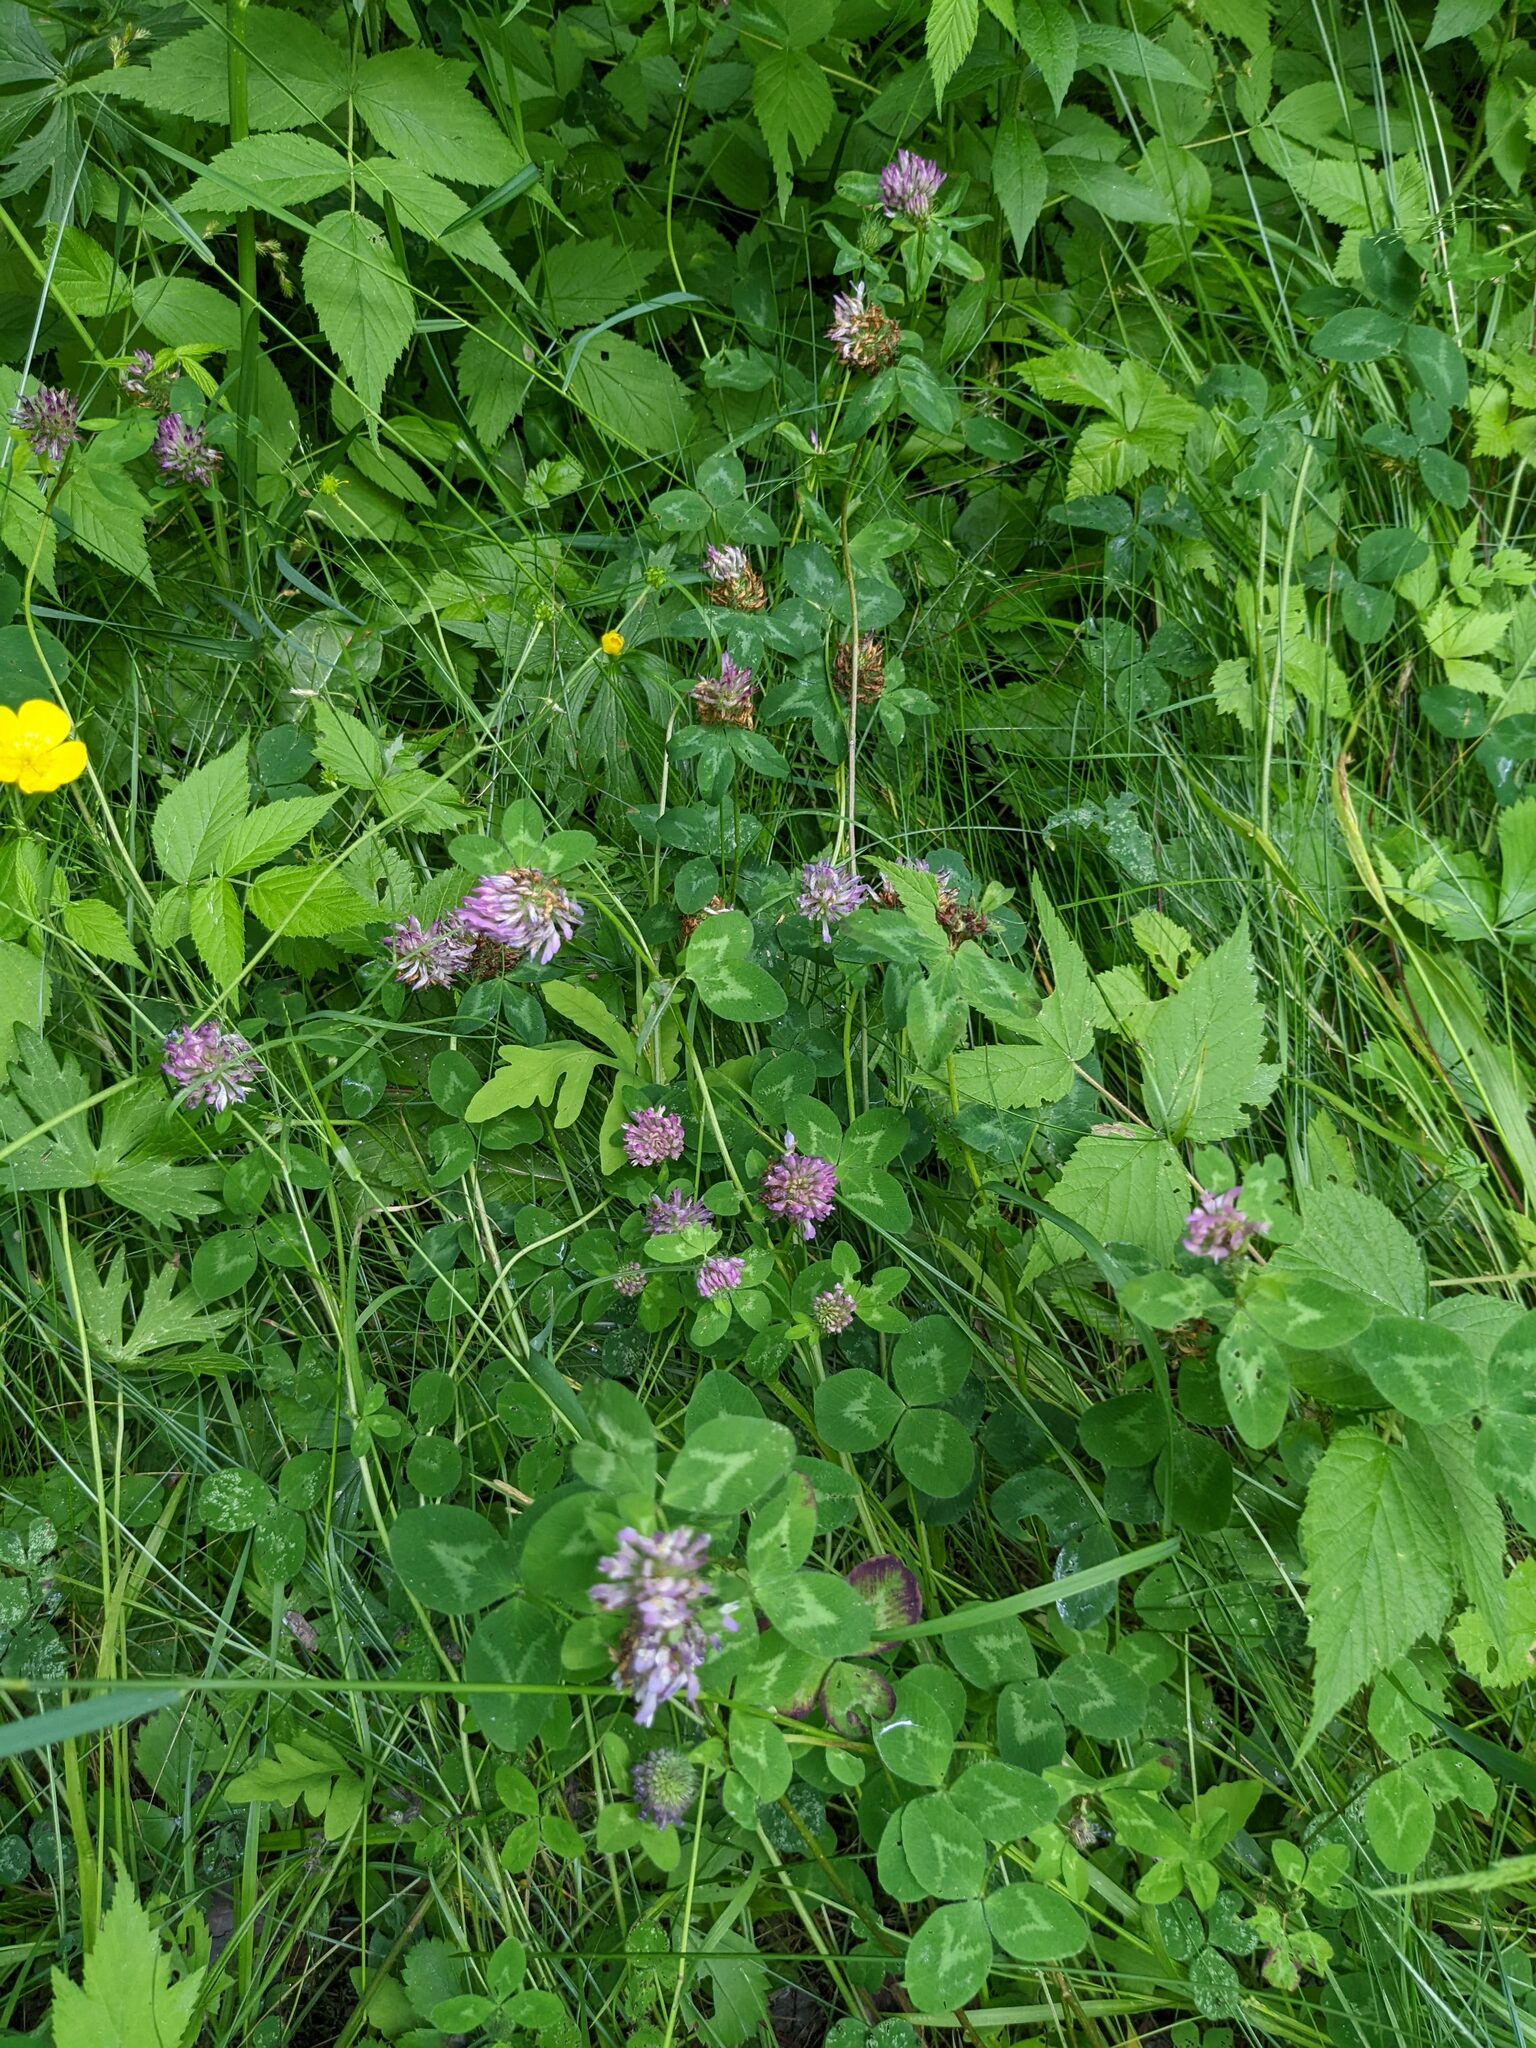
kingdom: Plantae
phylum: Tracheophyta
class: Magnoliopsida
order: Fabales
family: Fabaceae
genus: Trifolium
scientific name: Trifolium pratense
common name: Red clover
